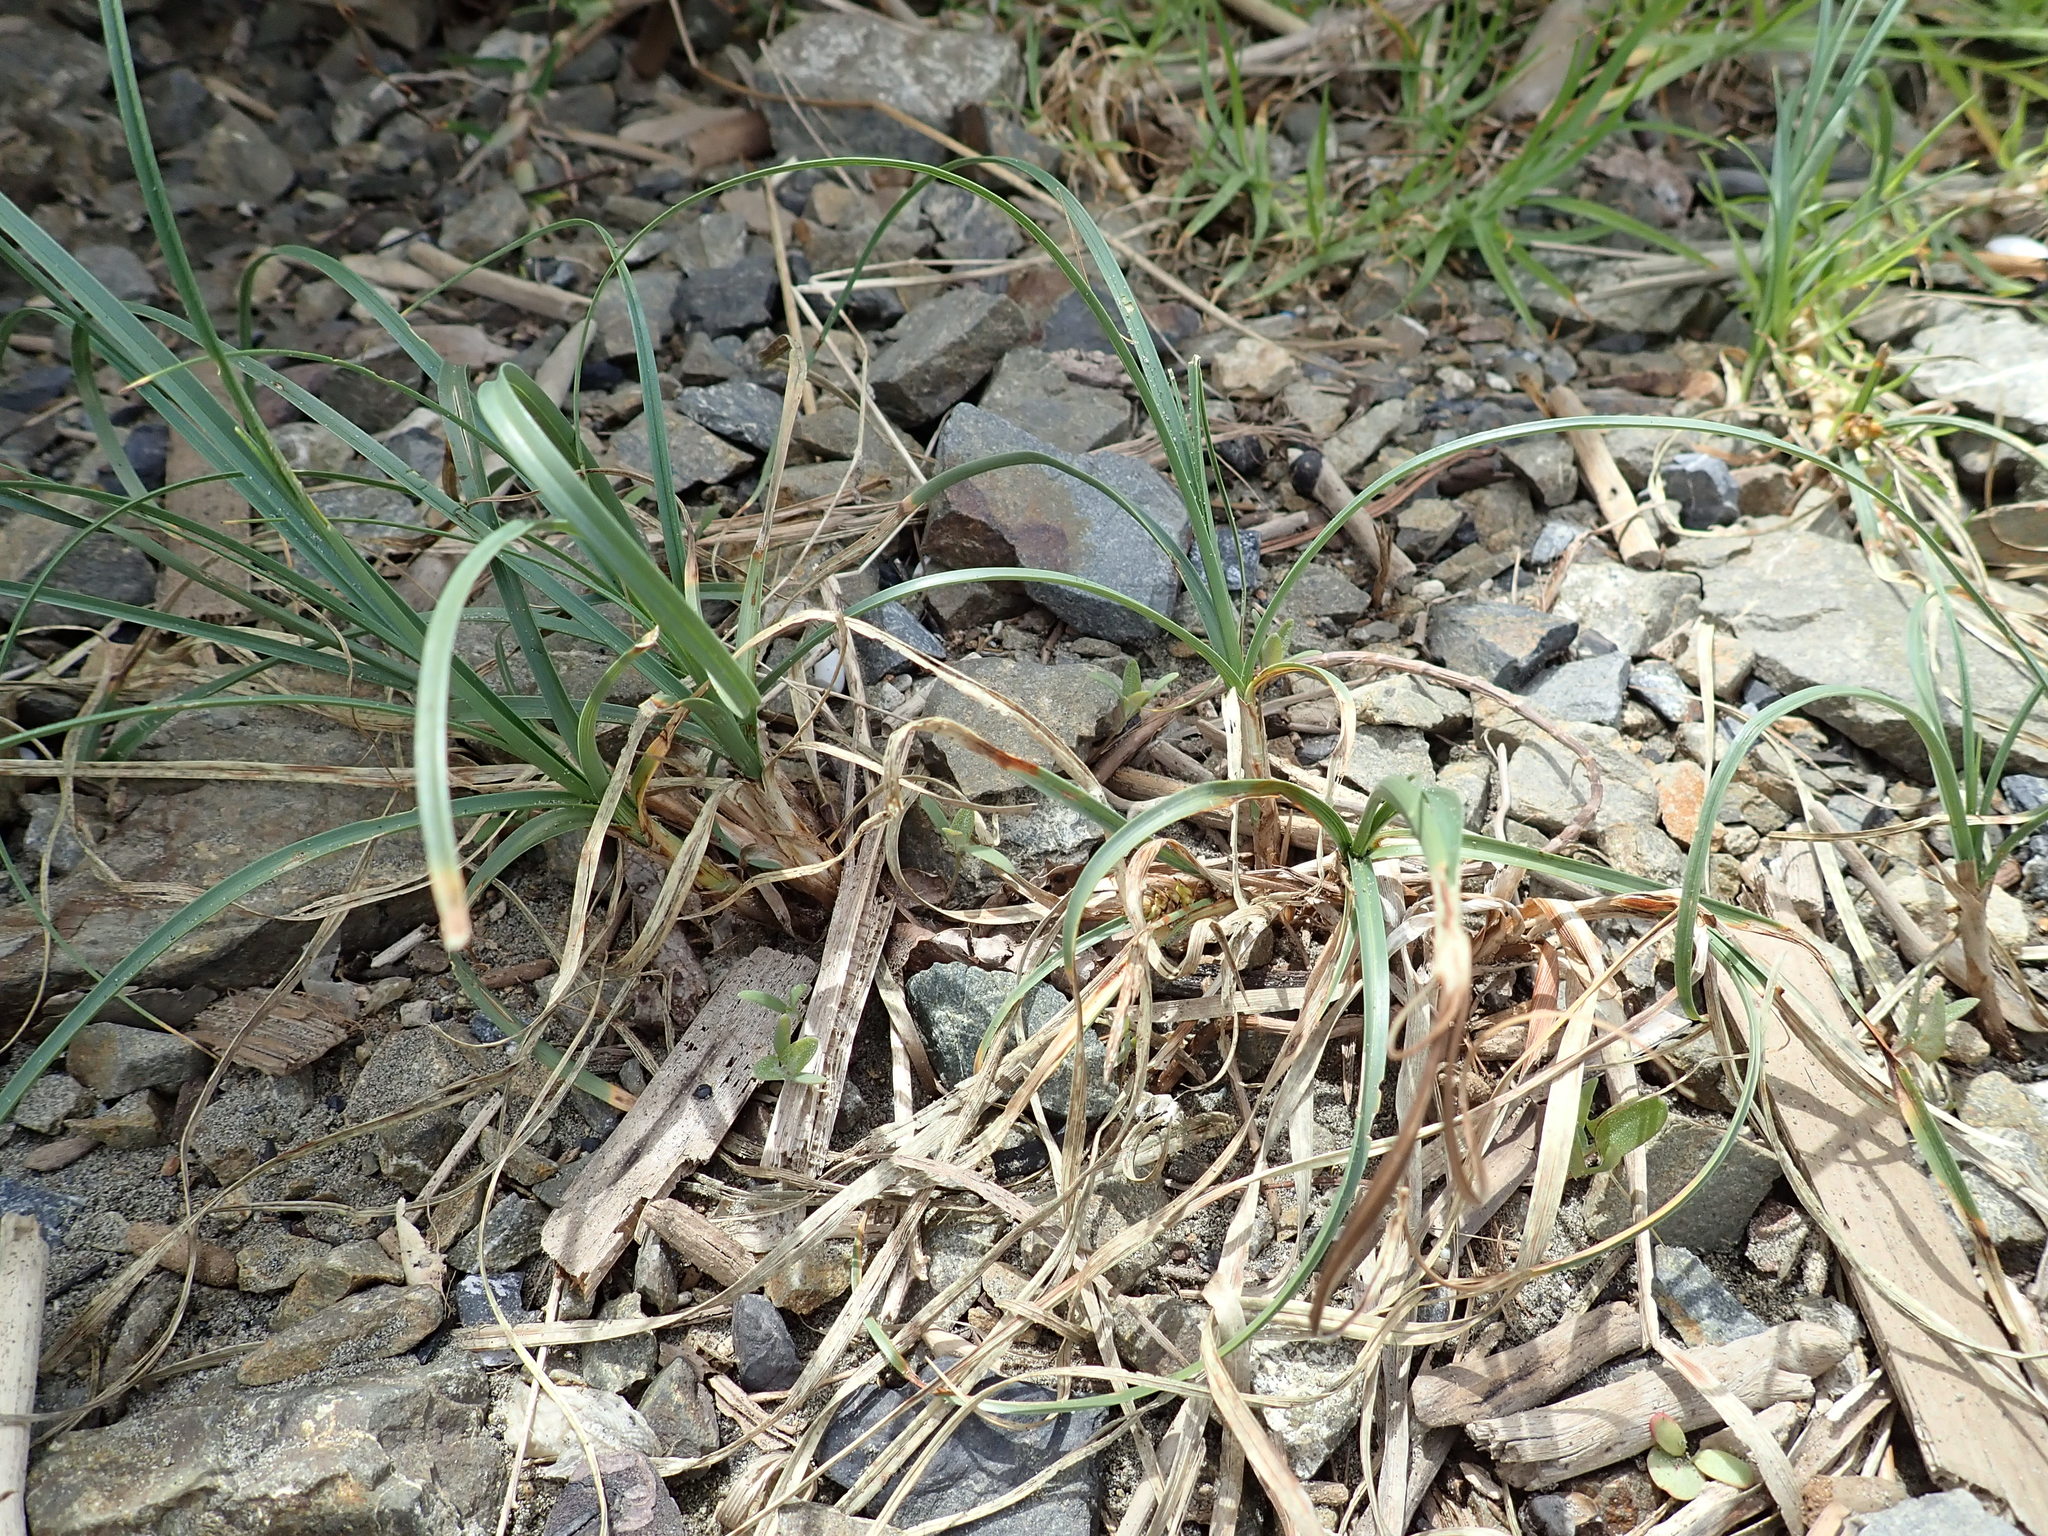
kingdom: Plantae
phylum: Tracheophyta
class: Liliopsida
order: Poales
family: Cyperaceae
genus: Carex
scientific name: Carex pumila
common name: Dwarf sedge
